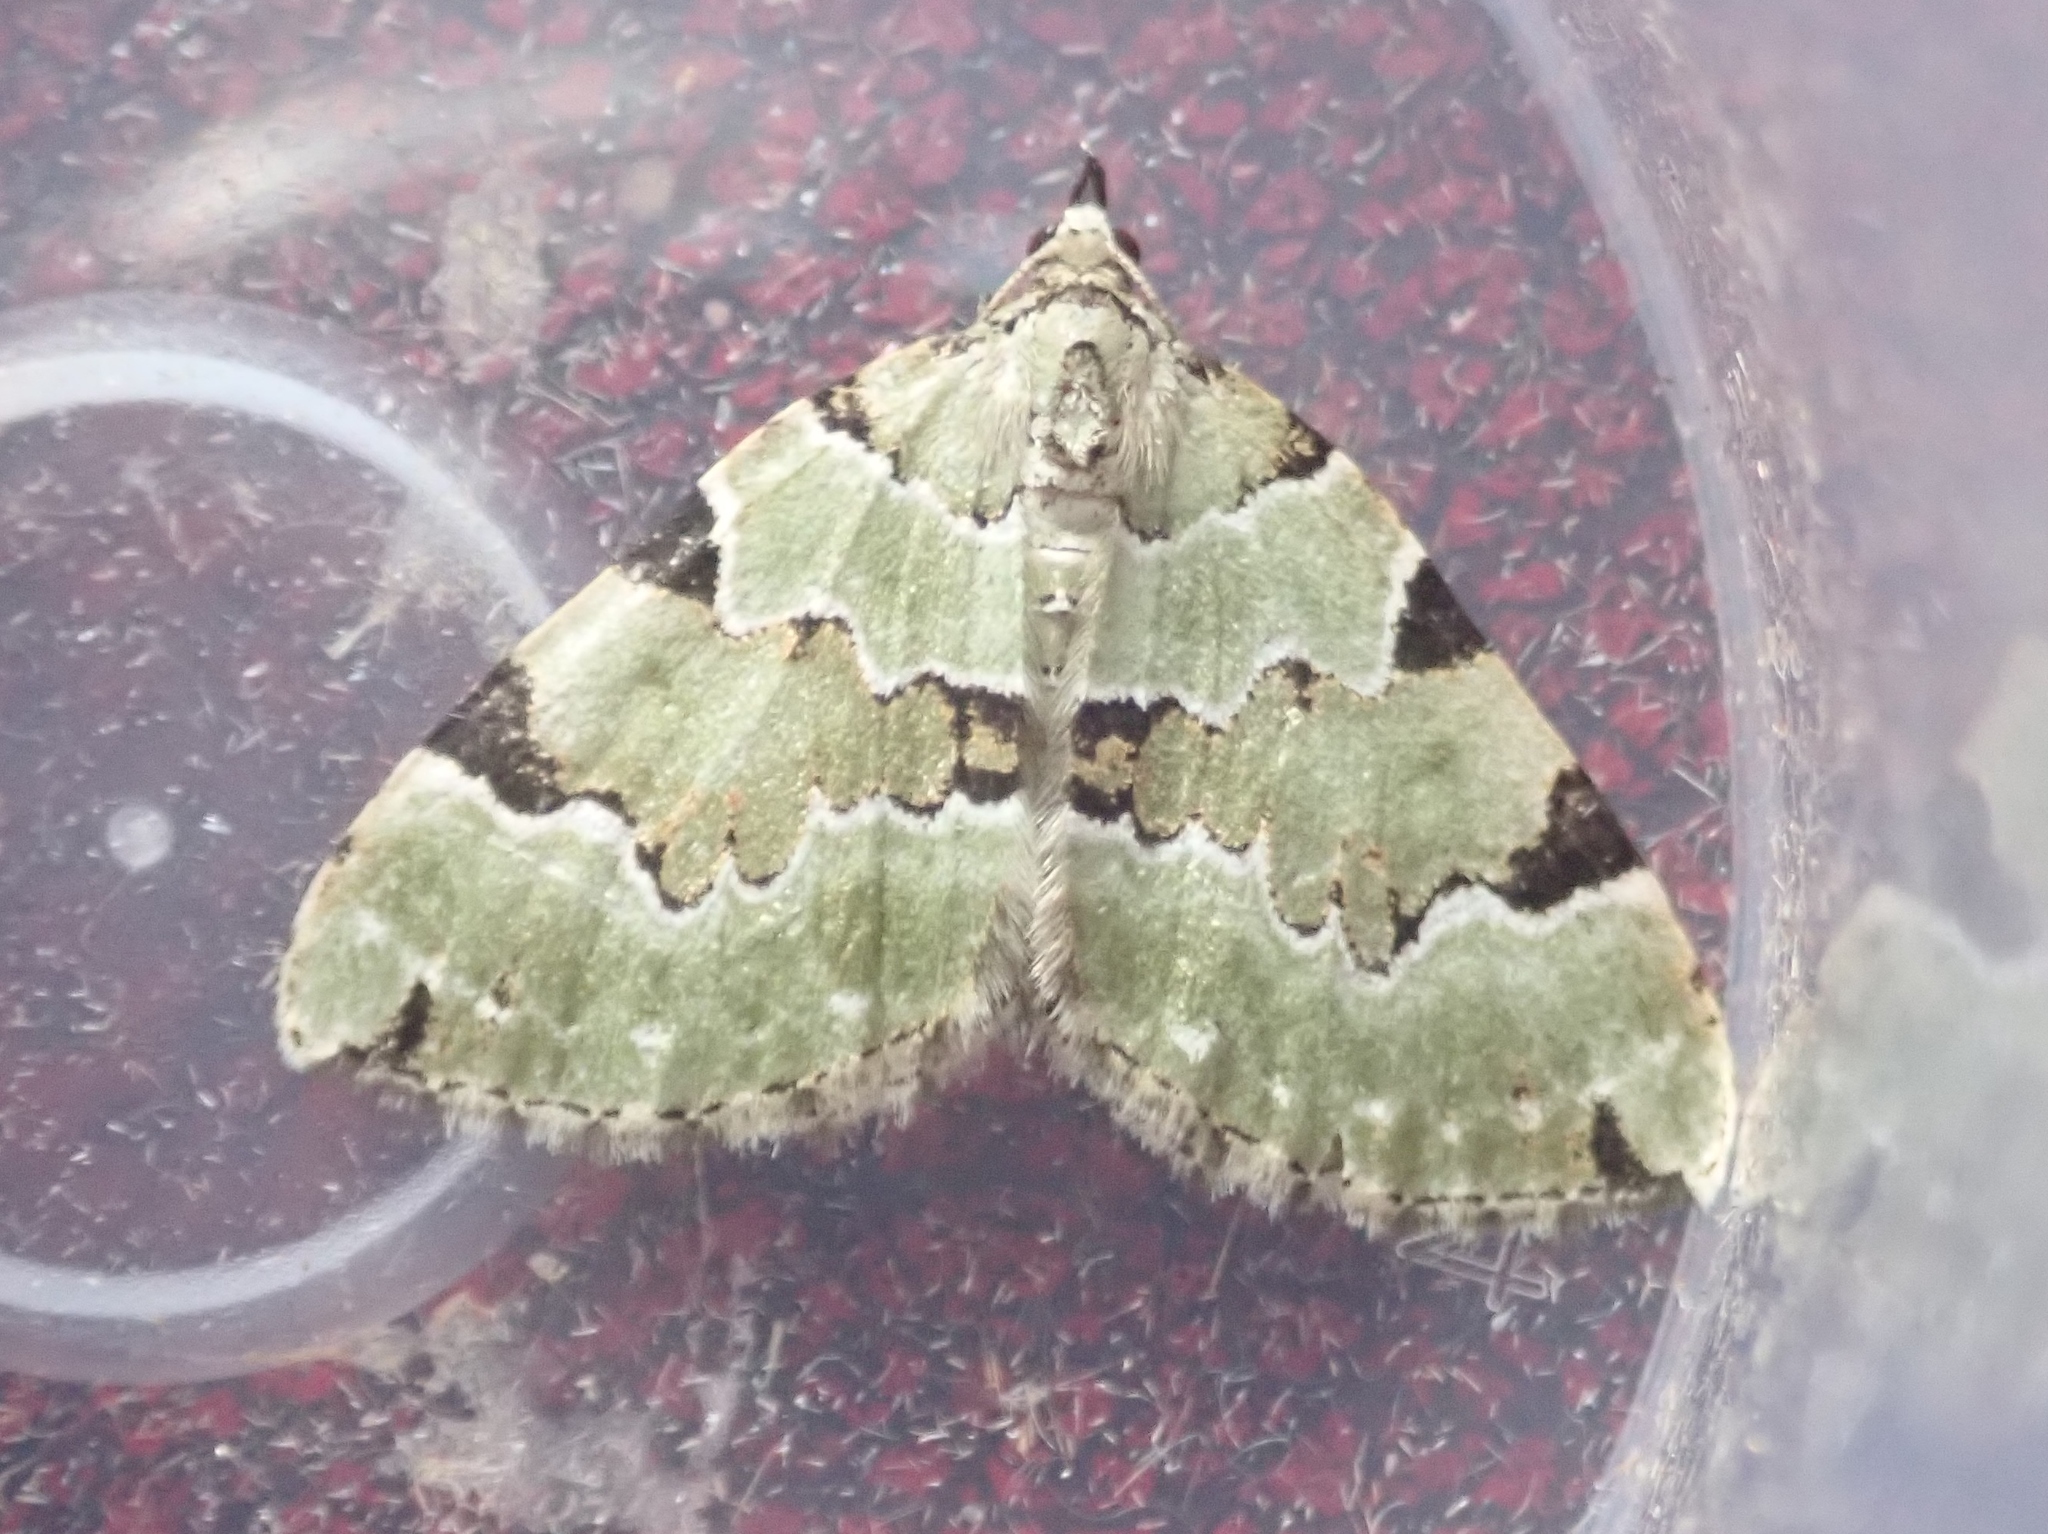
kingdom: Animalia
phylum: Arthropoda
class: Insecta
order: Lepidoptera
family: Geometridae
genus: Colostygia
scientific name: Colostygia pectinataria
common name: Green carpet
